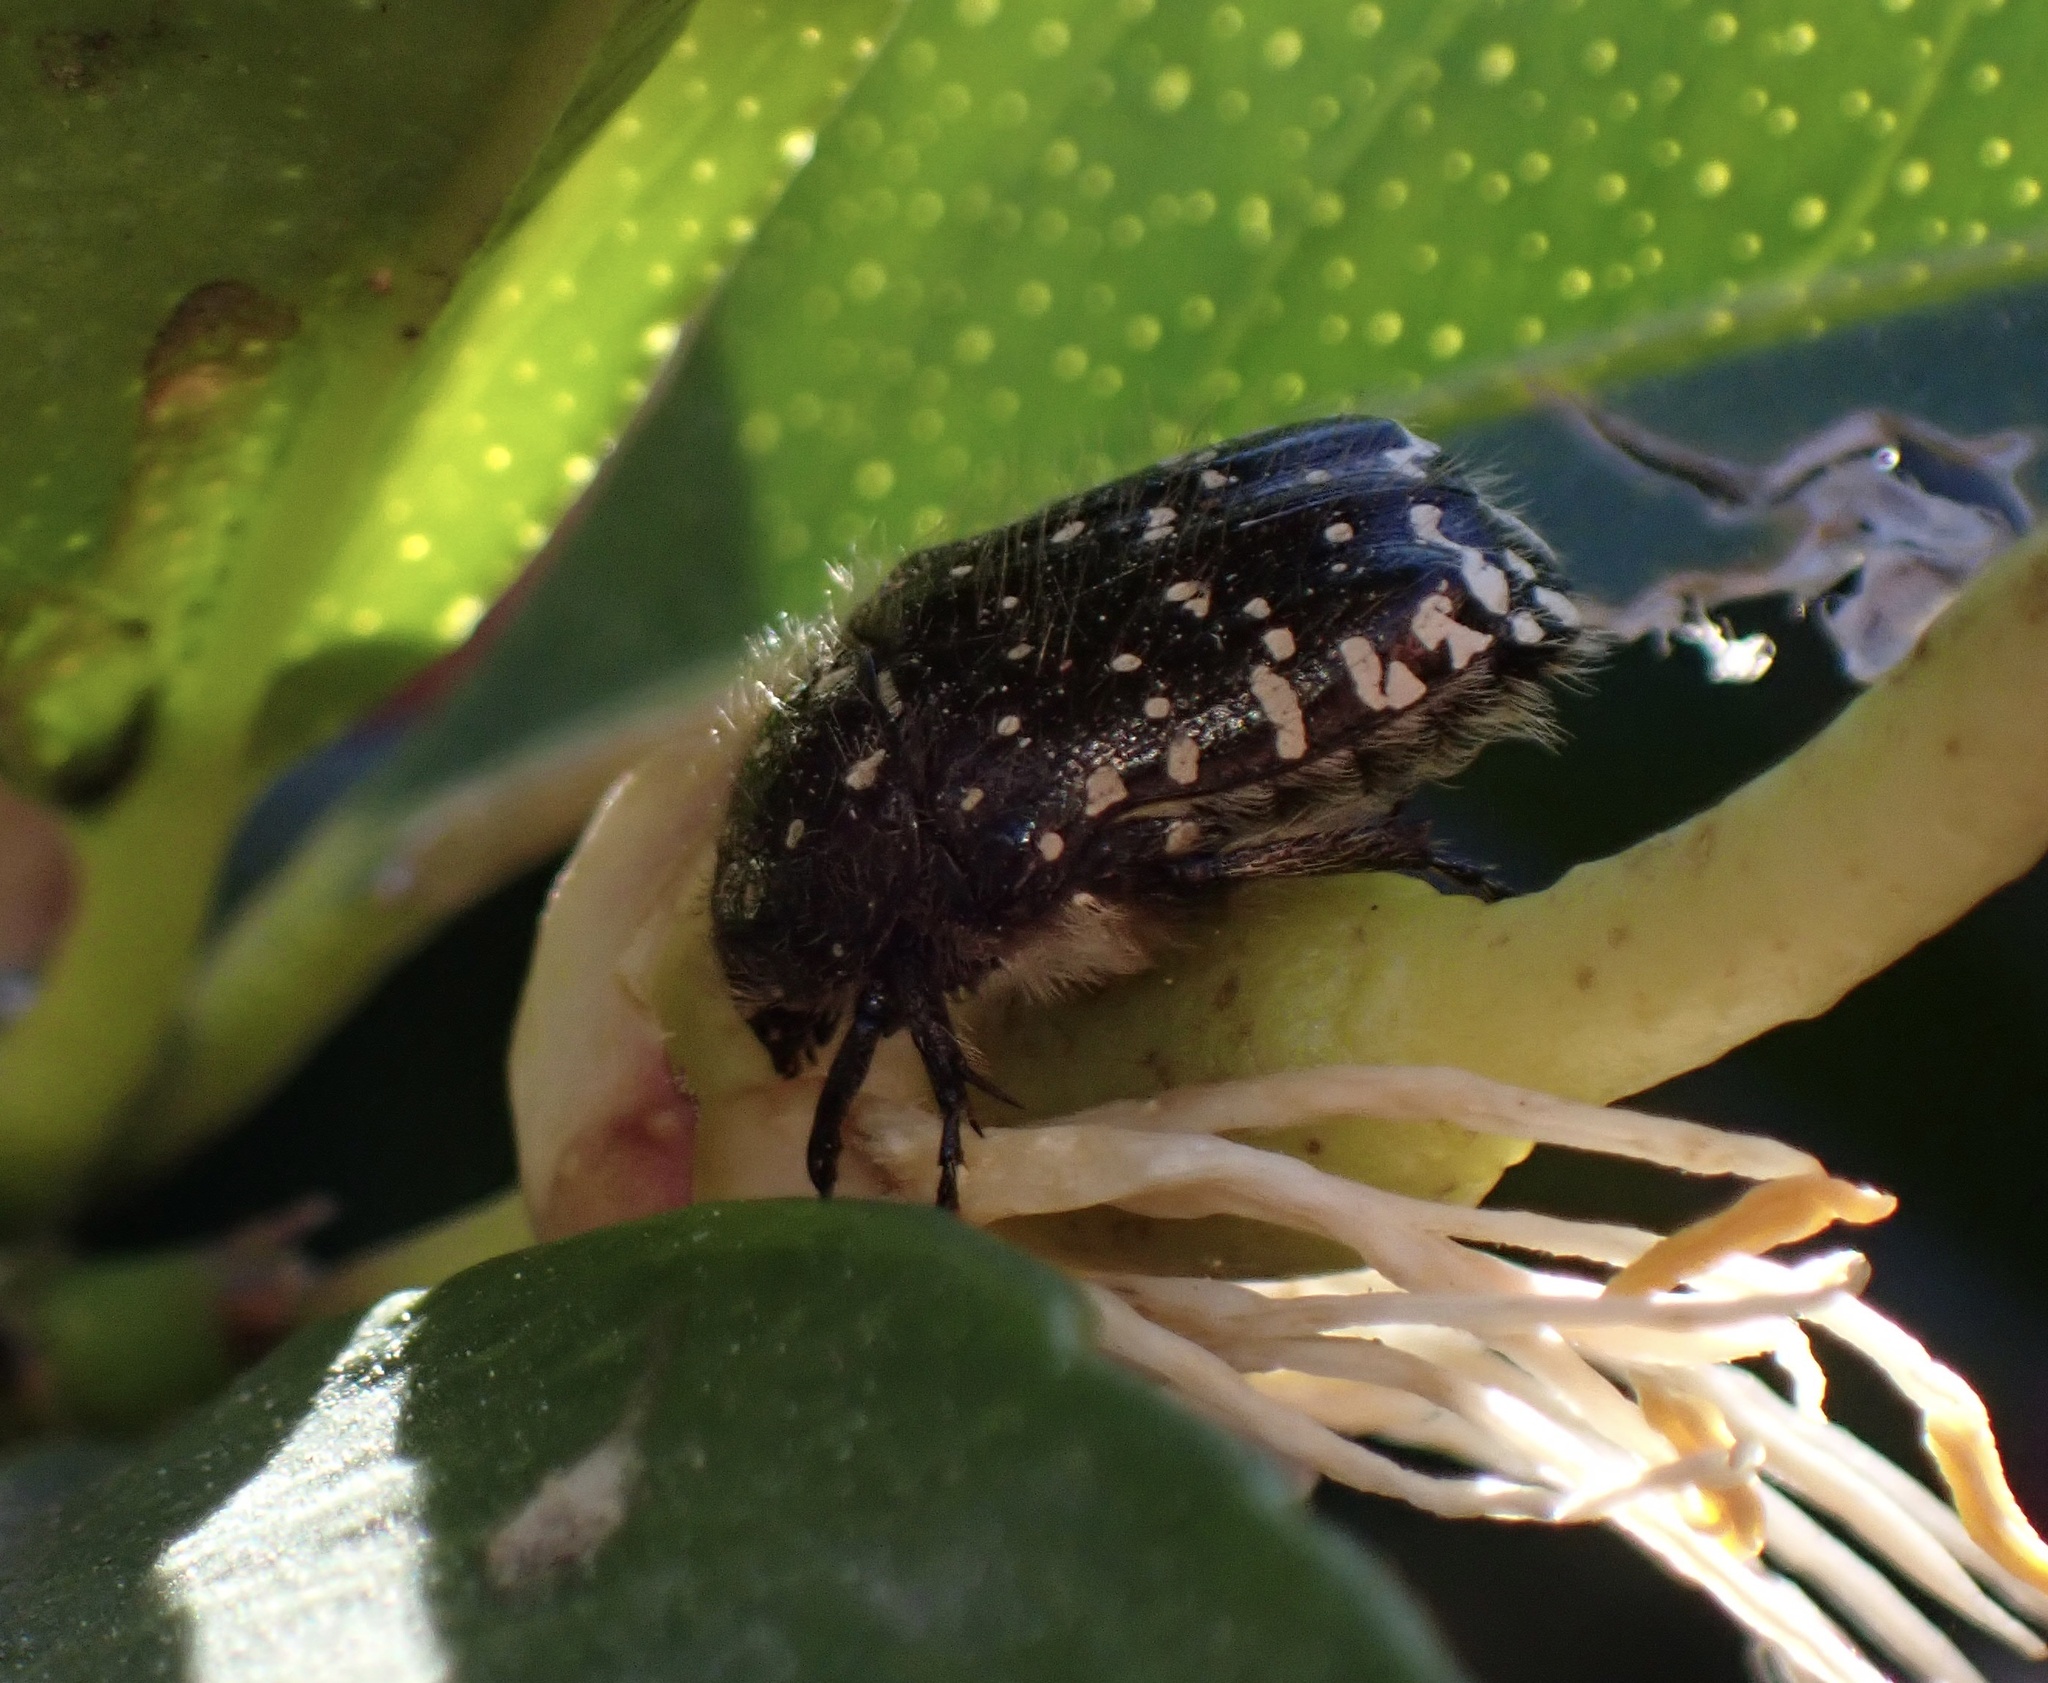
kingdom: Animalia
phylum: Arthropoda
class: Insecta
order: Coleoptera
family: Scarabaeidae
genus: Oxythyrea
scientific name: Oxythyrea funesta
